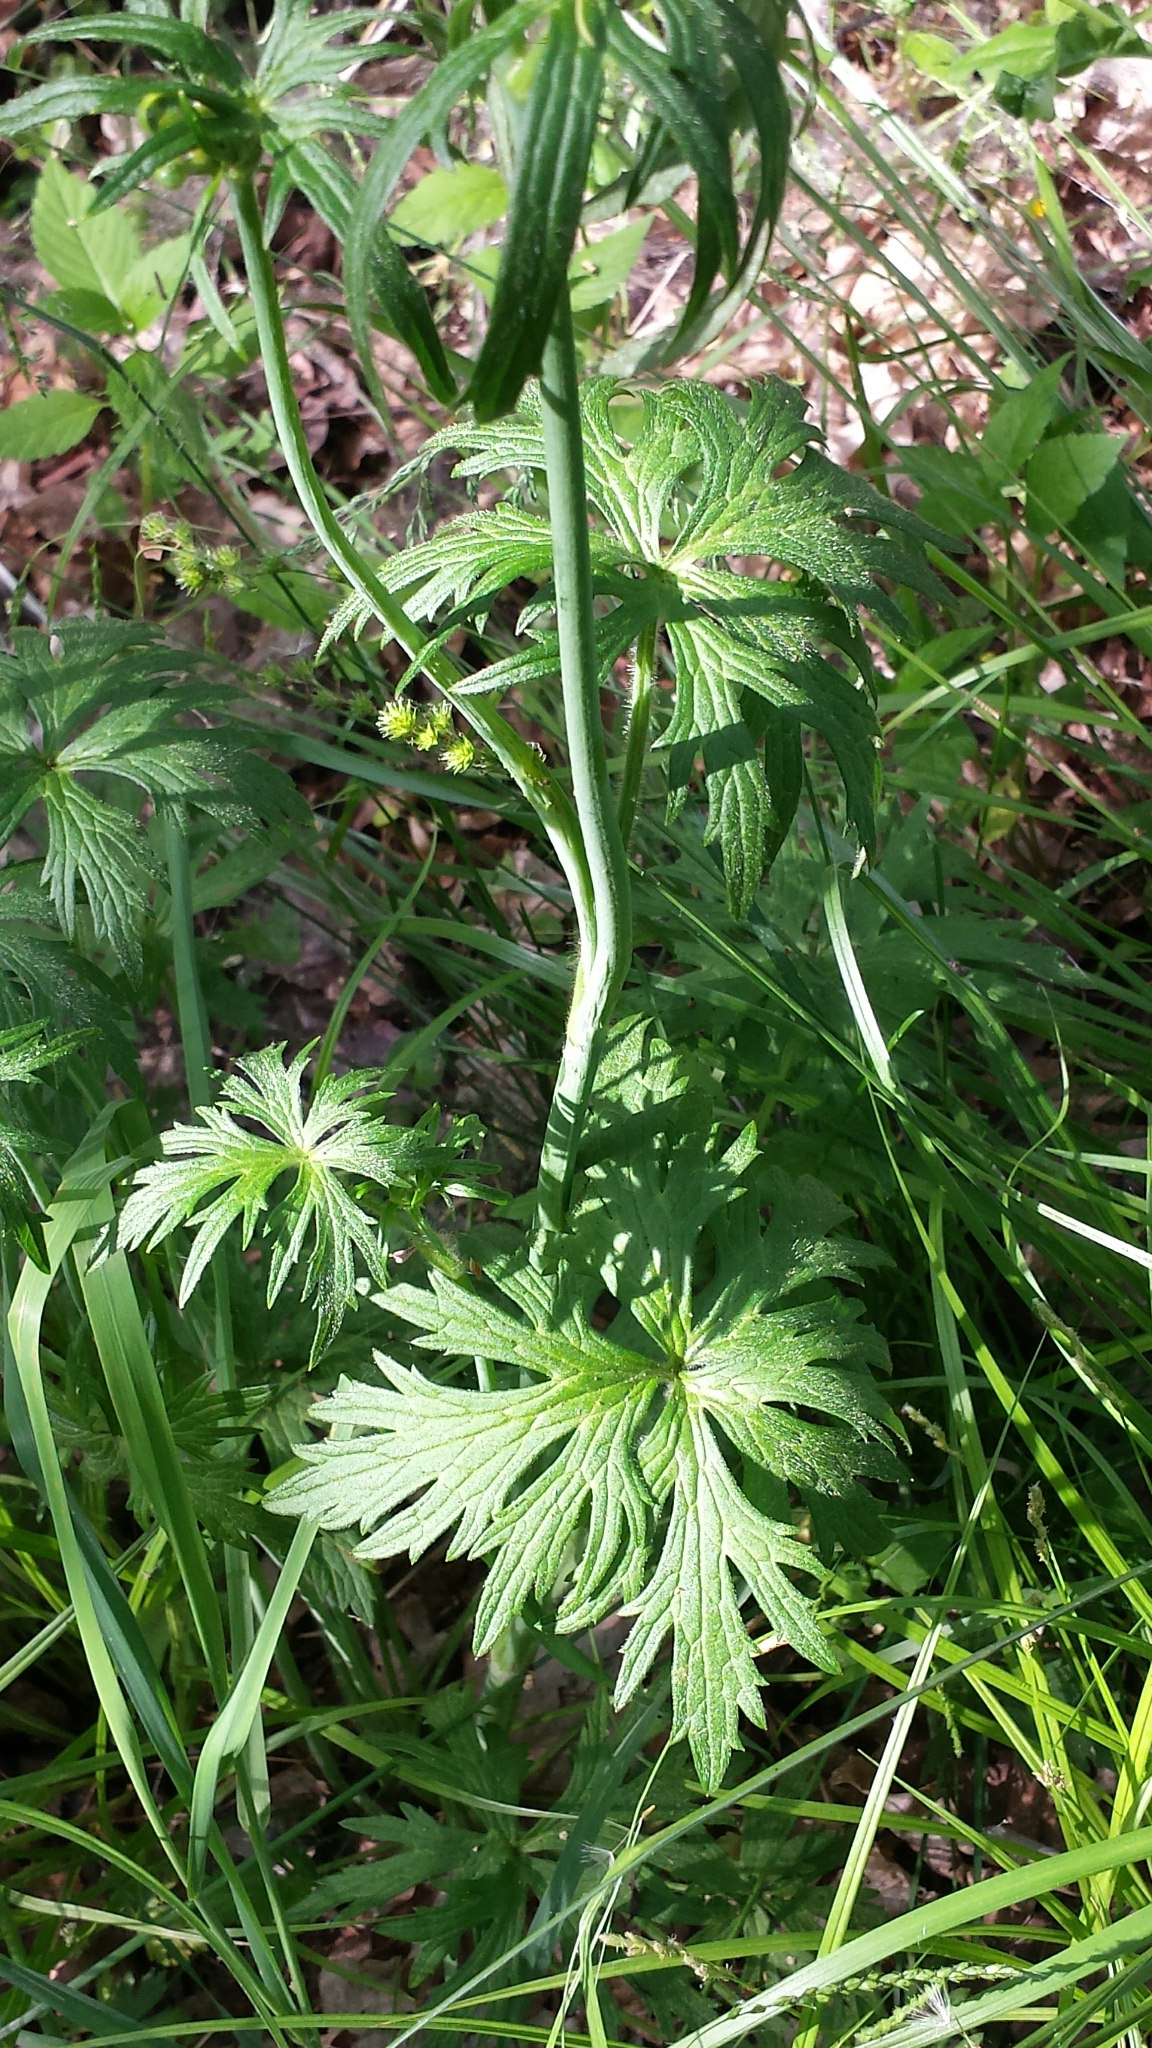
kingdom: Plantae
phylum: Tracheophyta
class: Magnoliopsida
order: Ranunculales
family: Ranunculaceae
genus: Ranunculus
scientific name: Ranunculus acris
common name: Meadow buttercup
